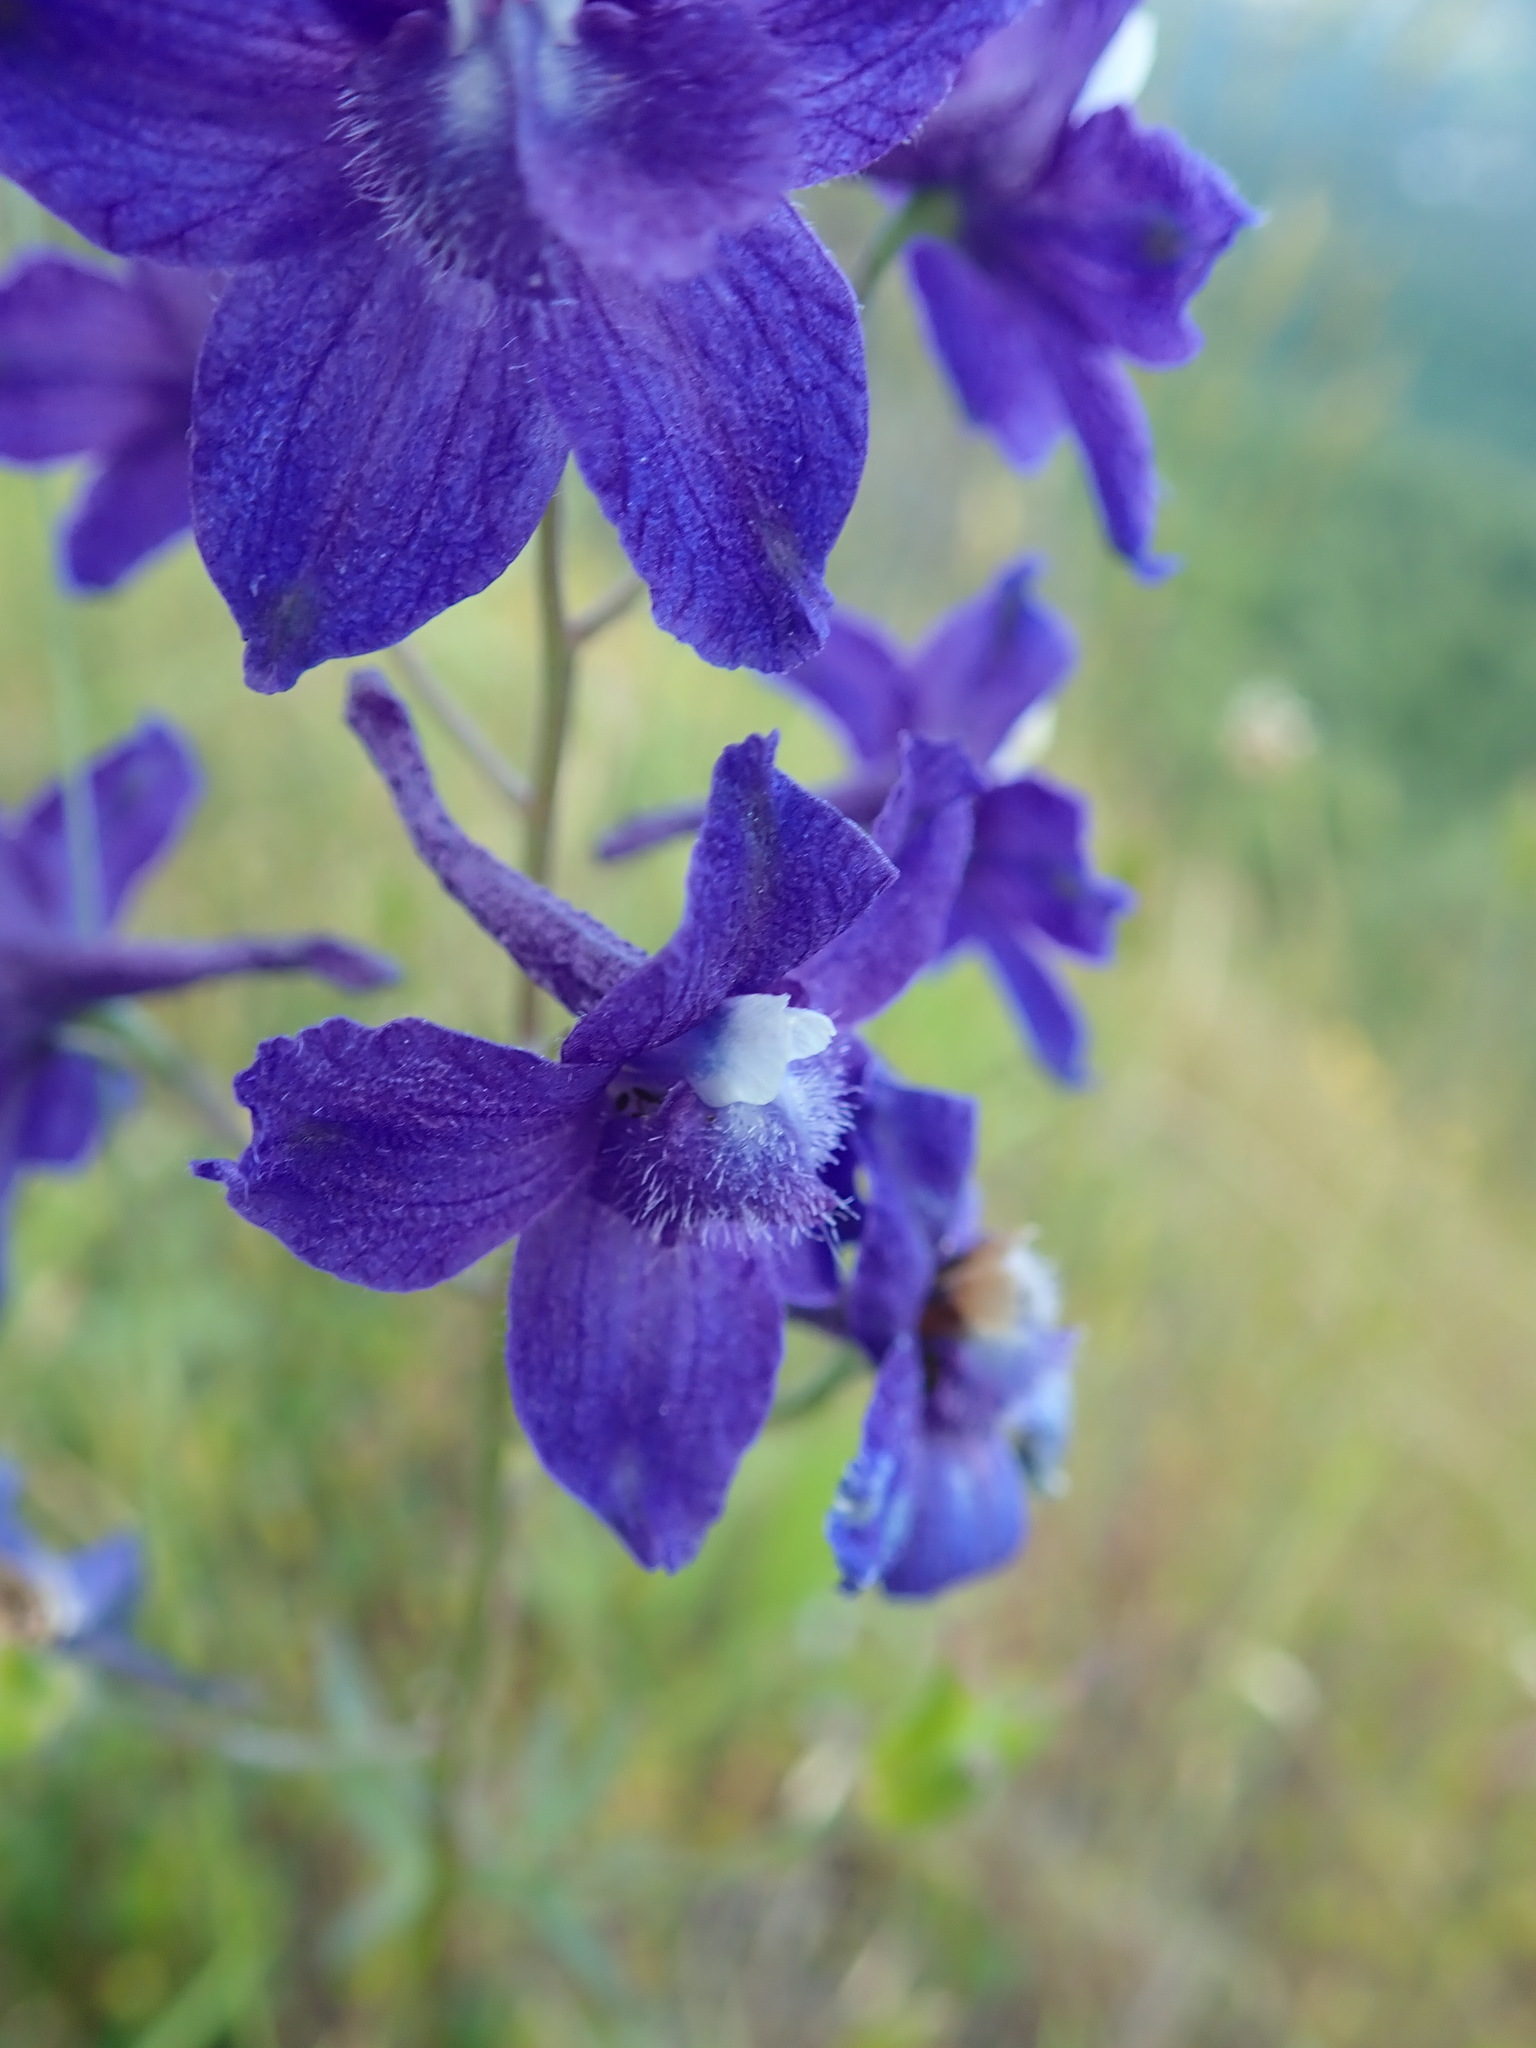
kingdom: Plantae
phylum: Tracheophyta
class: Magnoliopsida
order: Ranunculales
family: Ranunculaceae
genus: Delphinium
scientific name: Delphinium menziesii
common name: Menzies's larkspur
